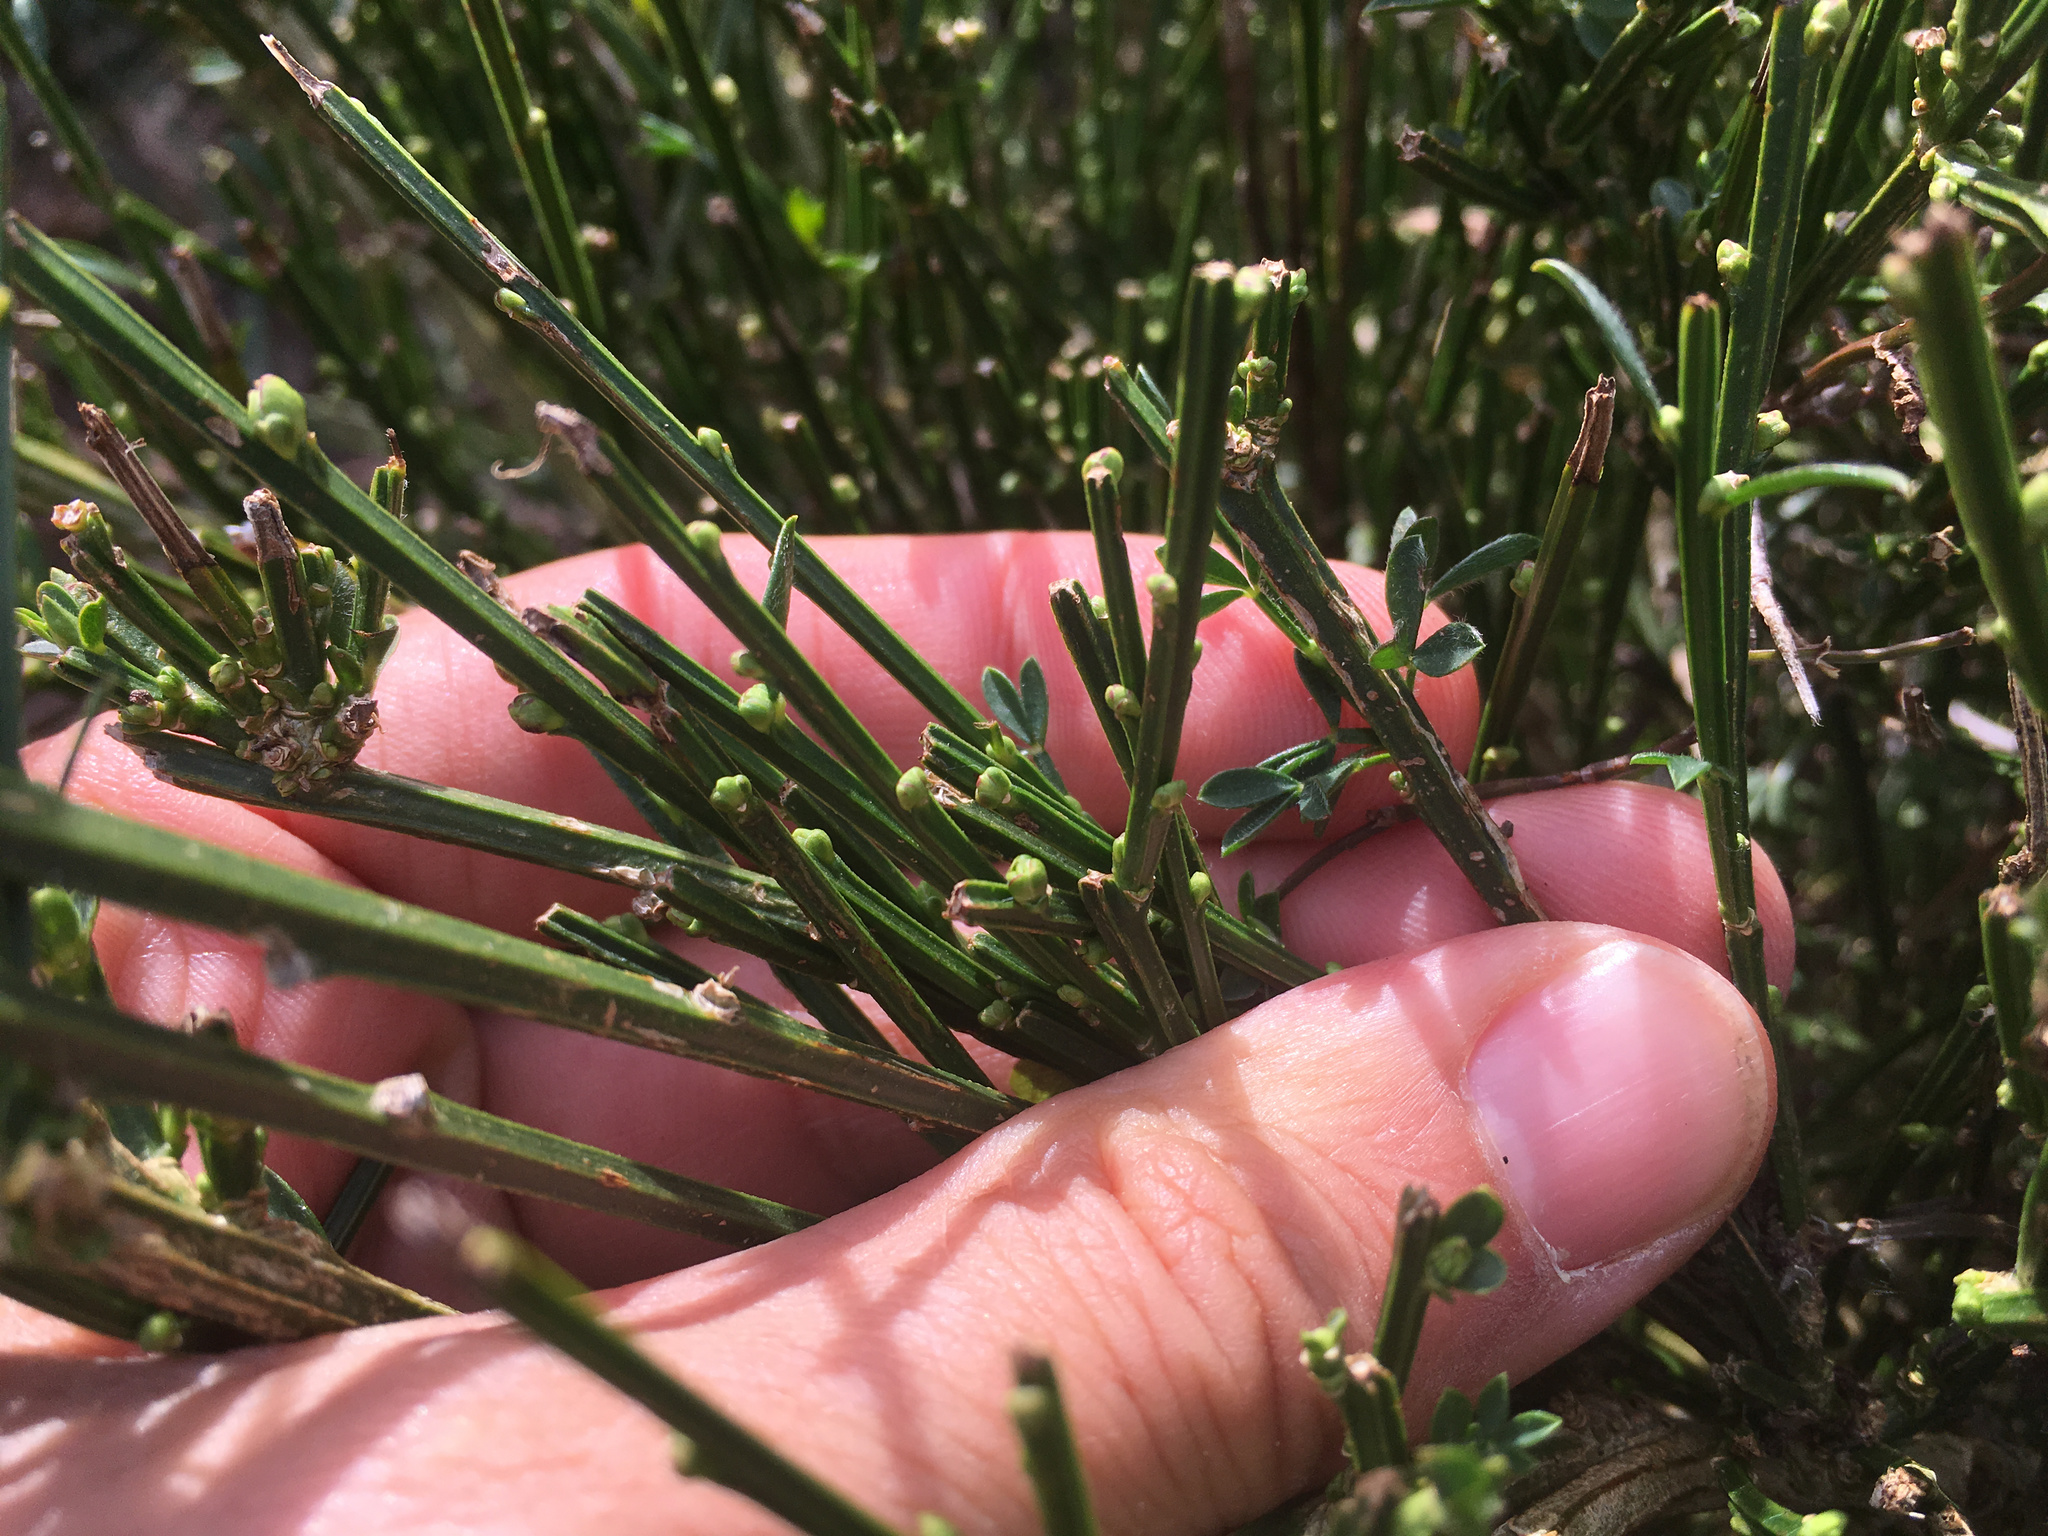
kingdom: Plantae
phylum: Tracheophyta
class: Magnoliopsida
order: Fabales
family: Fabaceae
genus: Cytisus
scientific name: Cytisus scoparius
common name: Scotch broom
